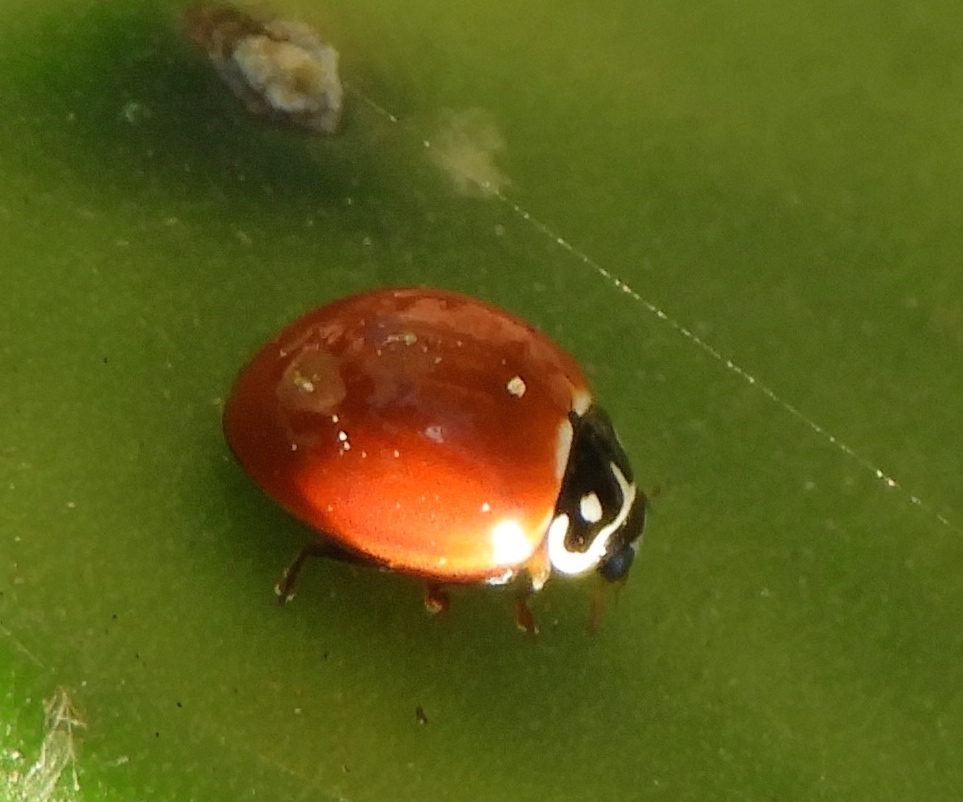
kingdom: Animalia
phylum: Arthropoda
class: Insecta
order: Coleoptera
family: Coccinellidae
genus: Cycloneda
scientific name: Cycloneda sanguinea
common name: Ladybird beetle
